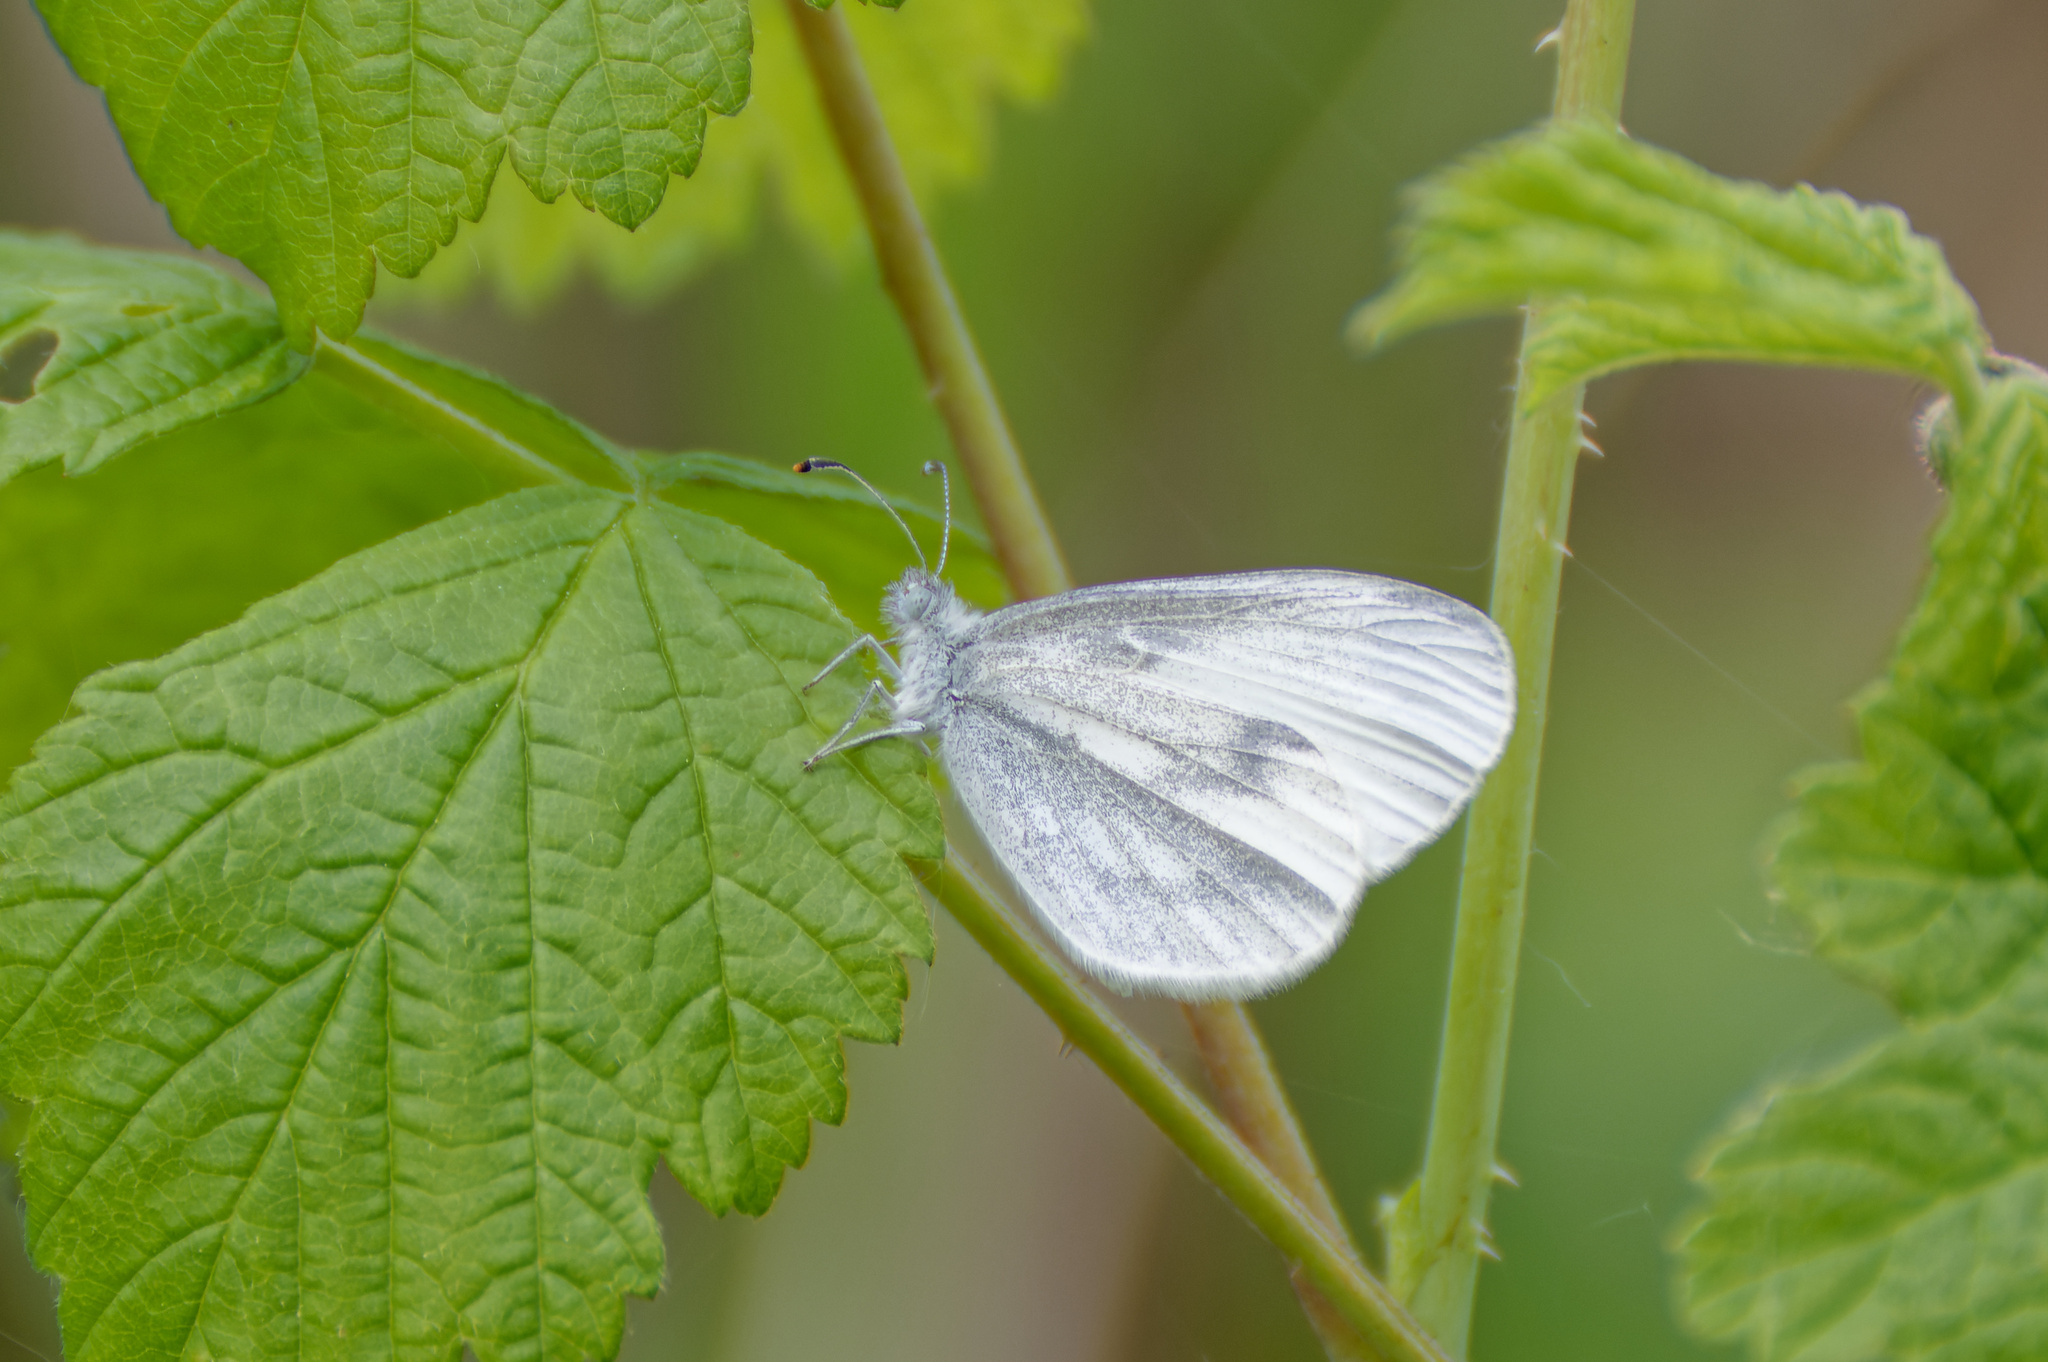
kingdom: Animalia
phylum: Arthropoda
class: Insecta
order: Lepidoptera
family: Pieridae
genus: Leptidea
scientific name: Leptidea sinapis
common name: Wood white
